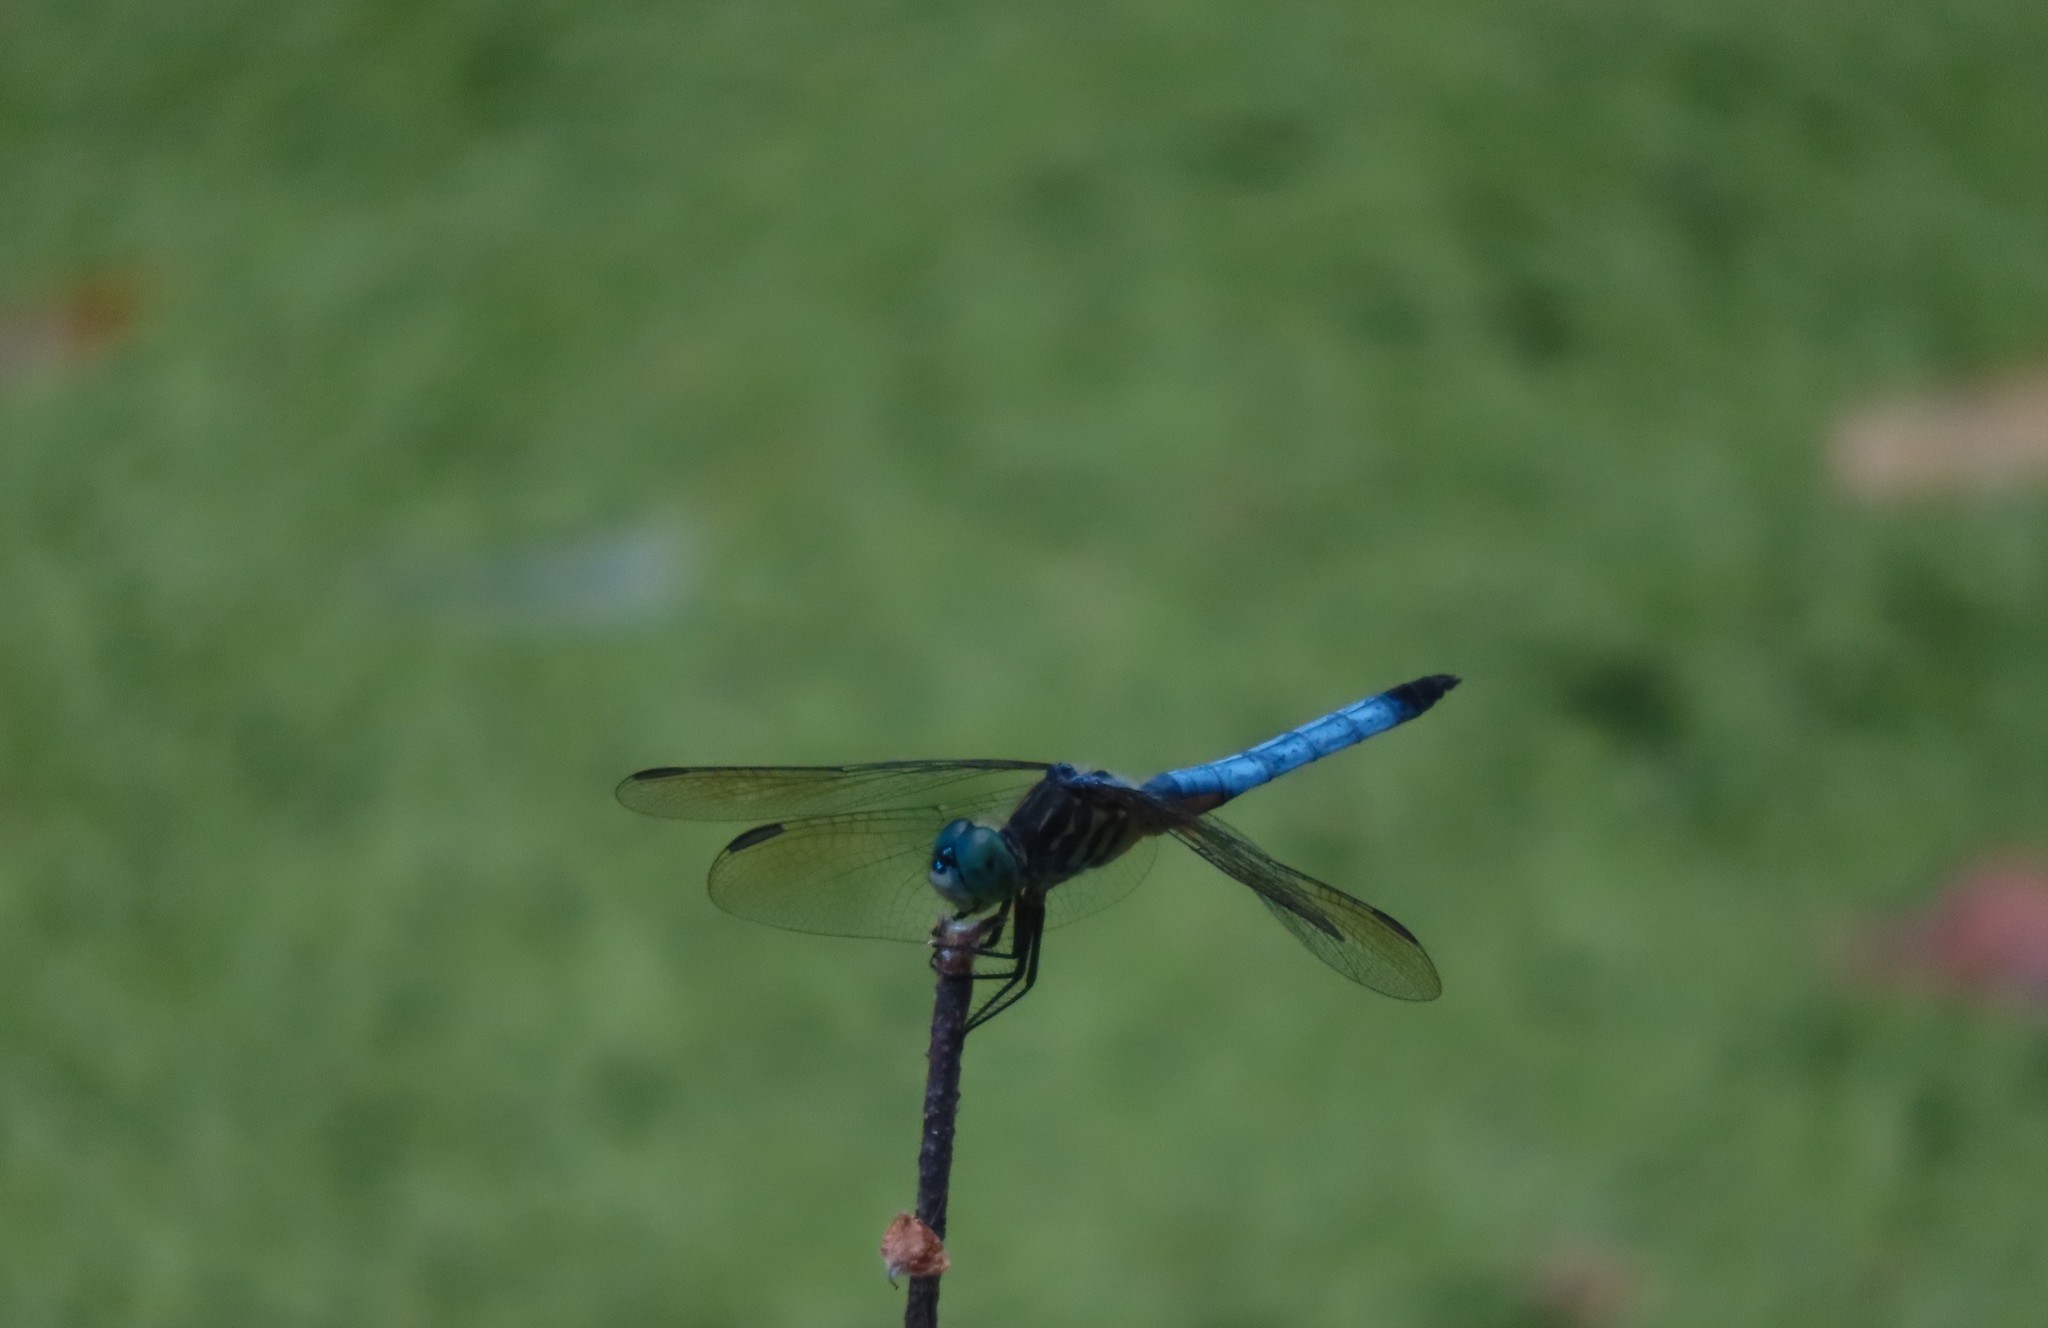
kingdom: Animalia
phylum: Arthropoda
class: Insecta
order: Odonata
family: Libellulidae
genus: Pachydiplax
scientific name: Pachydiplax longipennis
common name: Blue dasher
